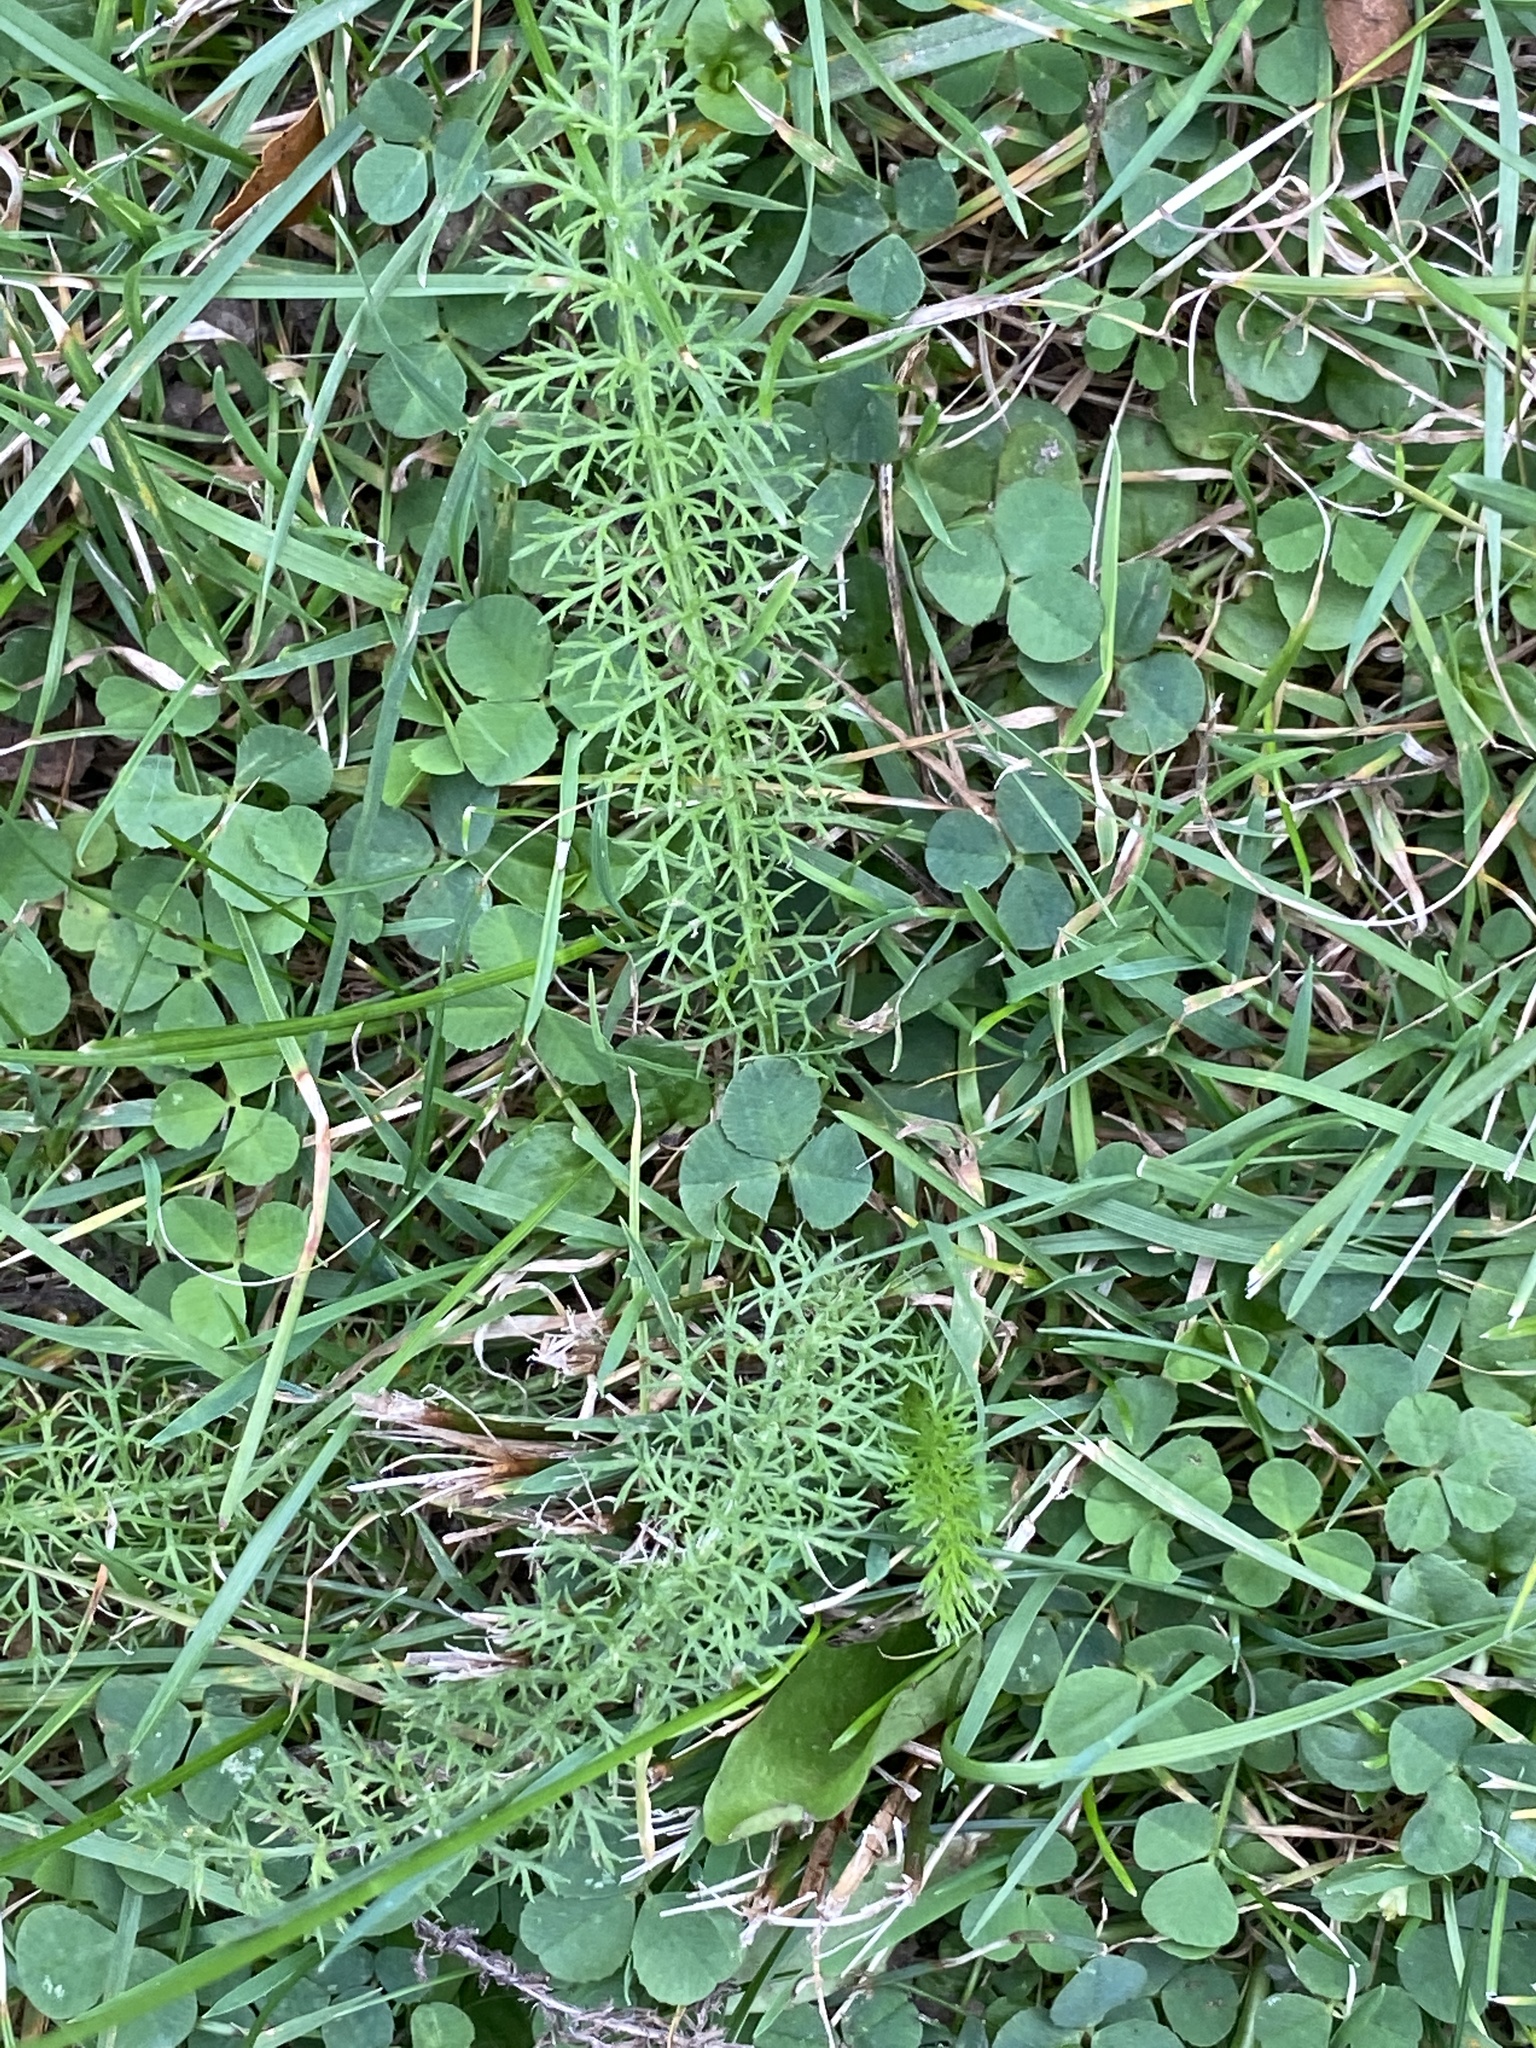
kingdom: Plantae
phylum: Tracheophyta
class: Magnoliopsida
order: Asterales
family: Asteraceae
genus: Achillea
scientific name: Achillea millefolium
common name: Yarrow
